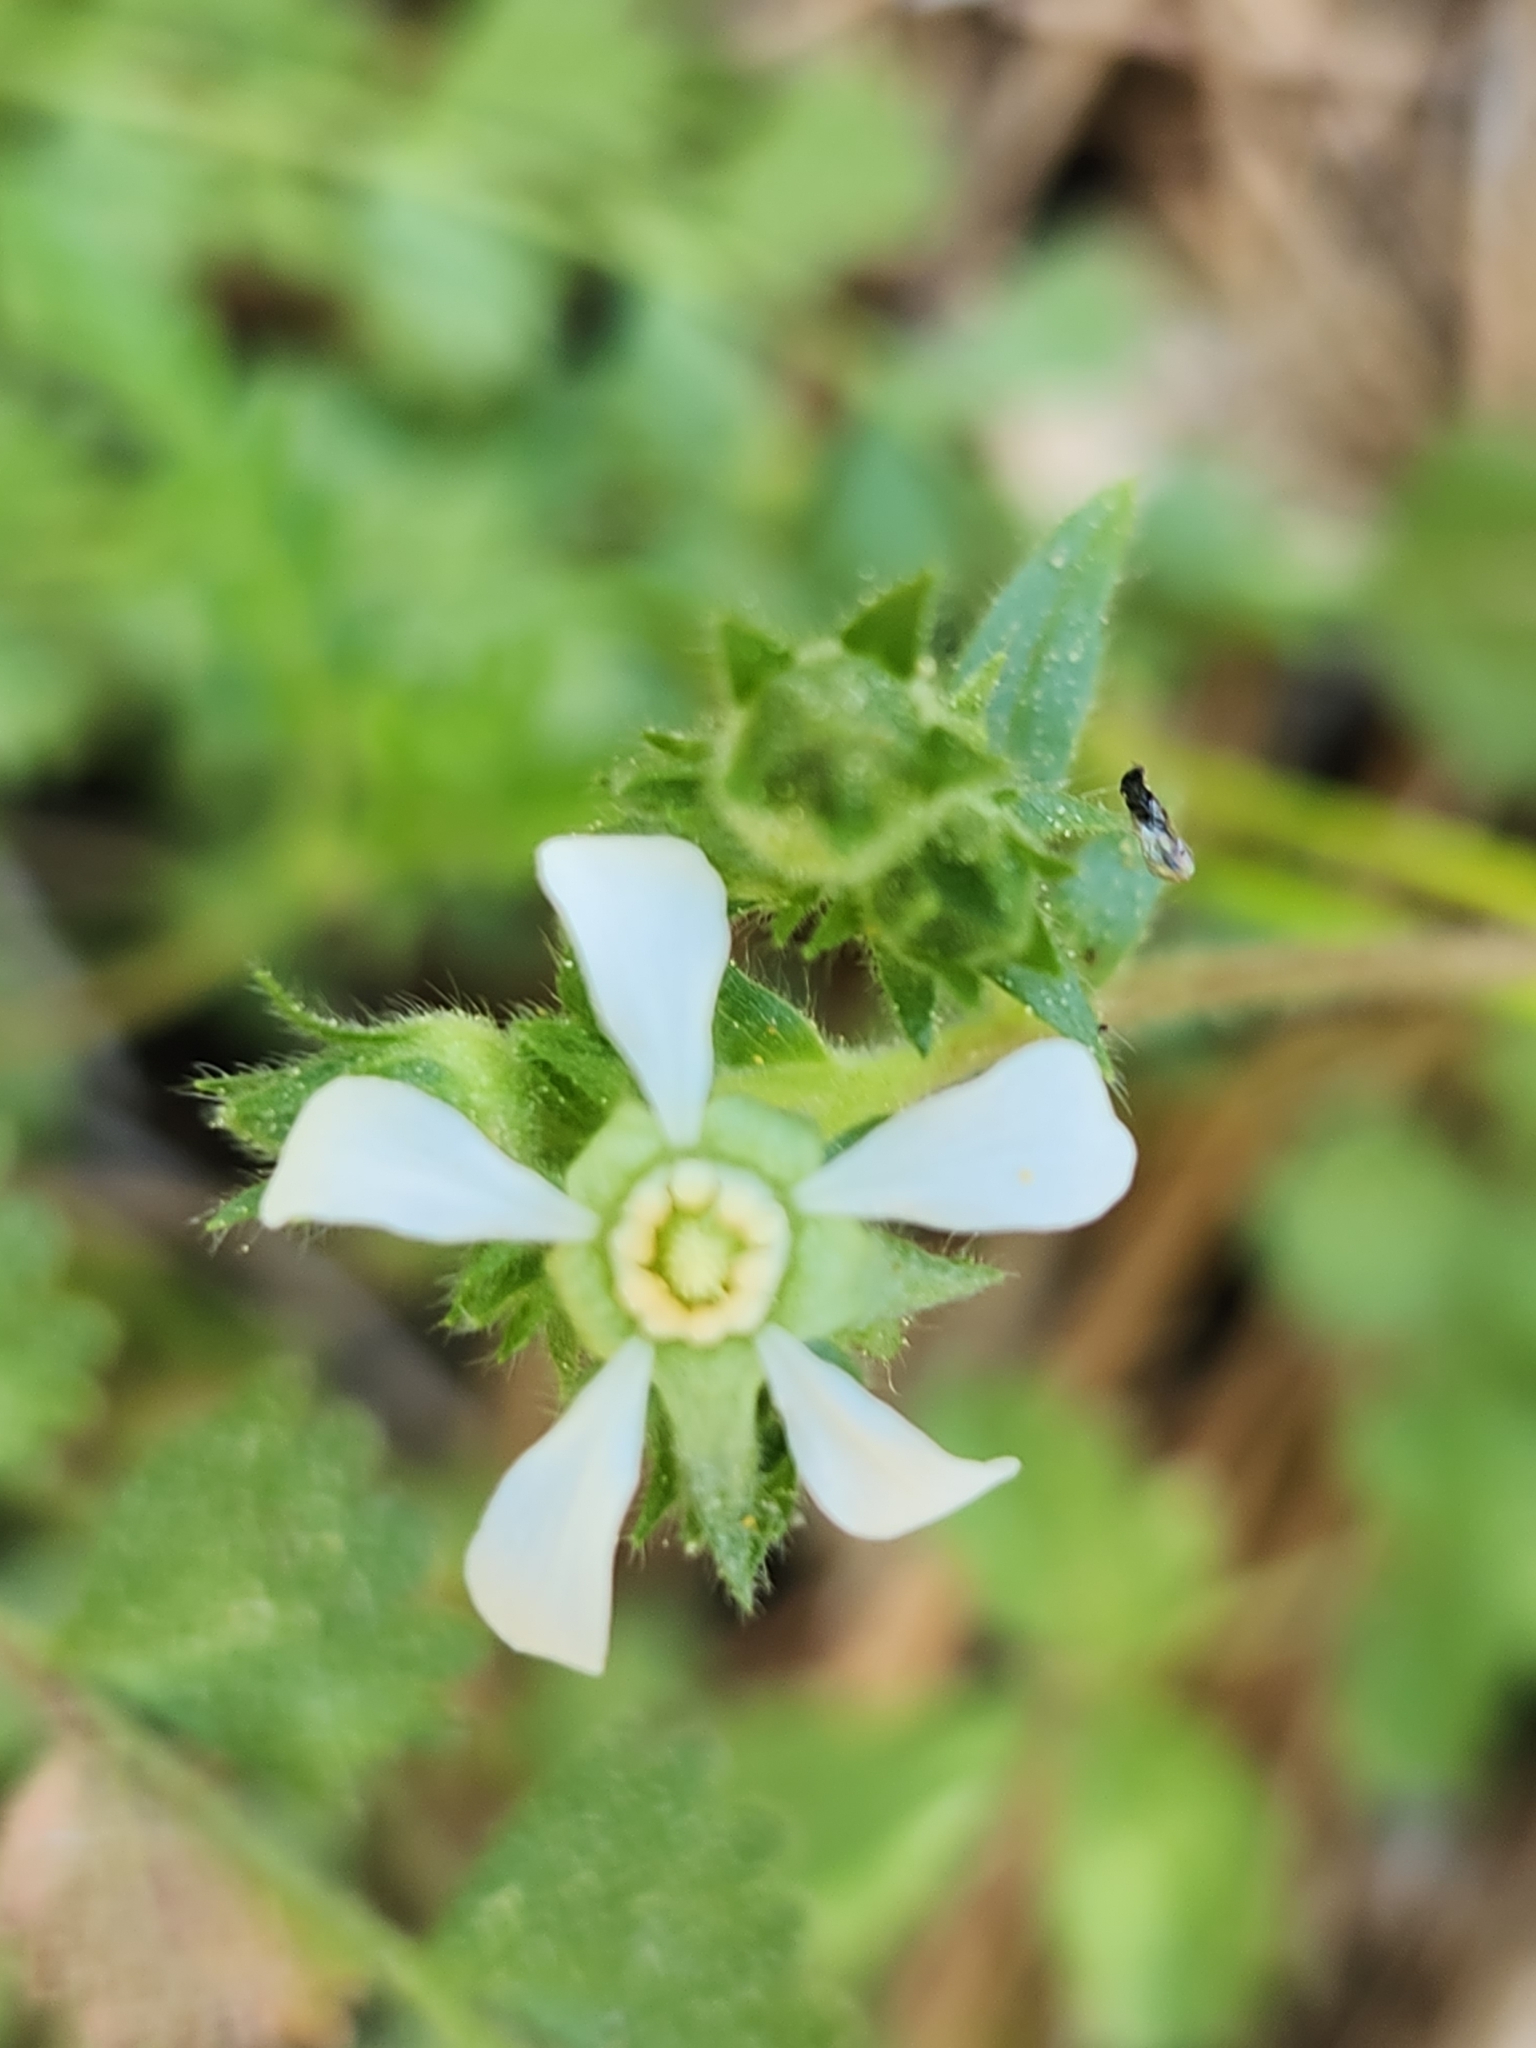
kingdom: Plantae
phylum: Tracheophyta
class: Magnoliopsida
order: Rosales
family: Rosaceae
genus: Potentilla
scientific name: Potentilla clevelandii
